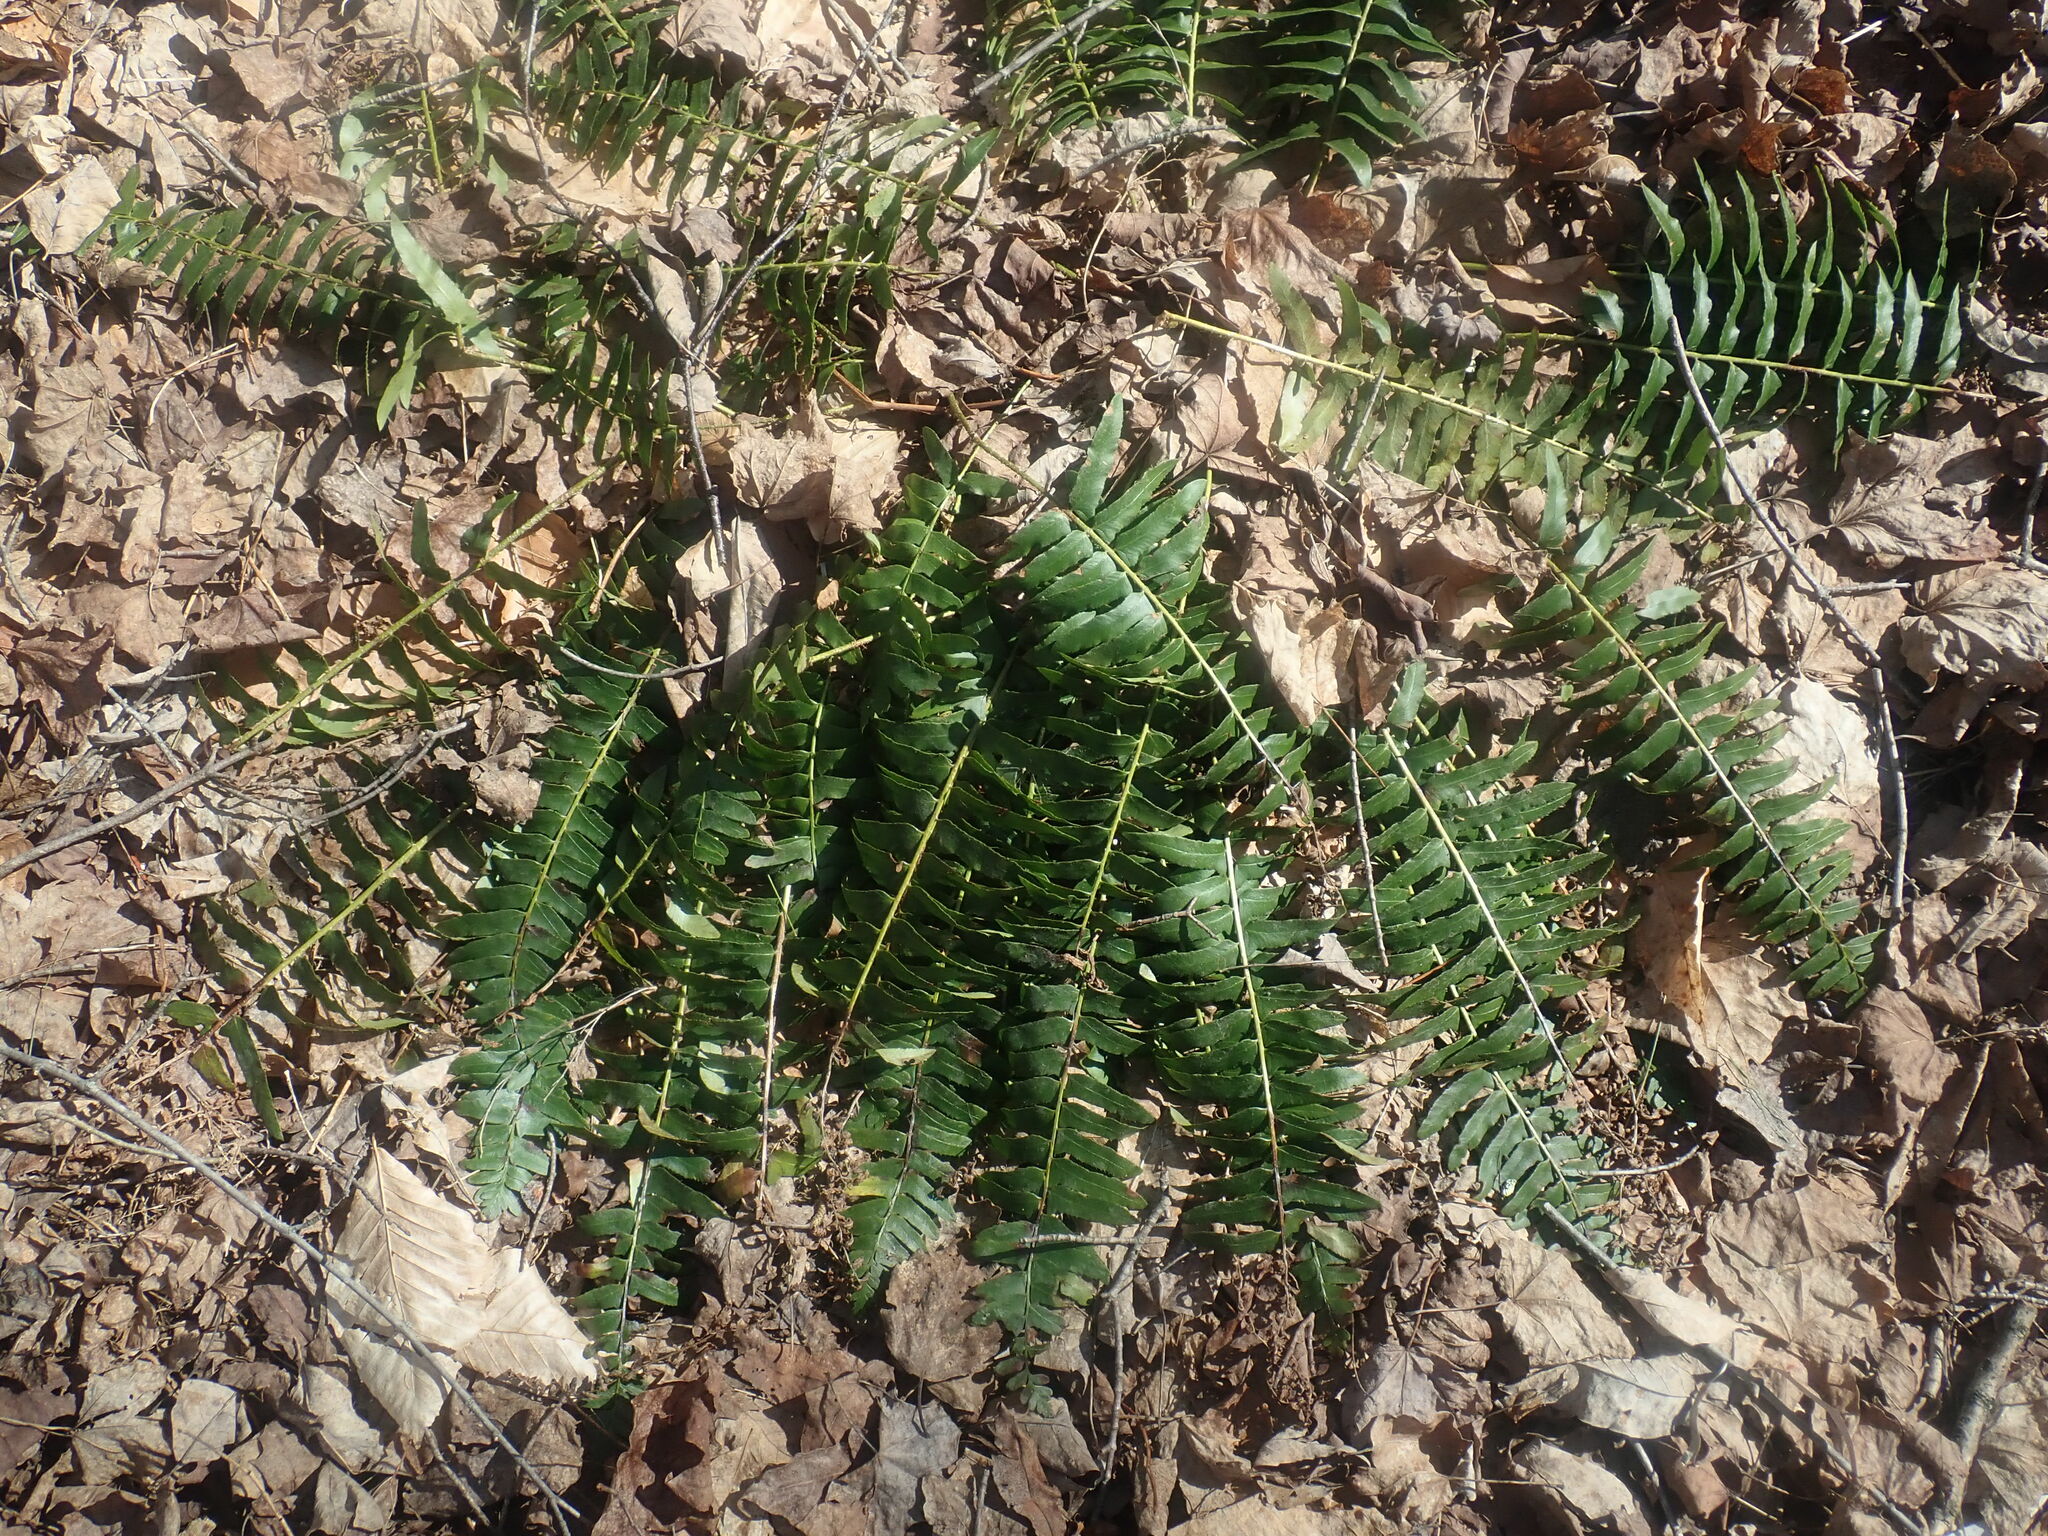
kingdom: Plantae
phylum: Tracheophyta
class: Polypodiopsida
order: Polypodiales
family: Dryopteridaceae
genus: Polystichum
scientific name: Polystichum acrostichoides
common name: Christmas fern
